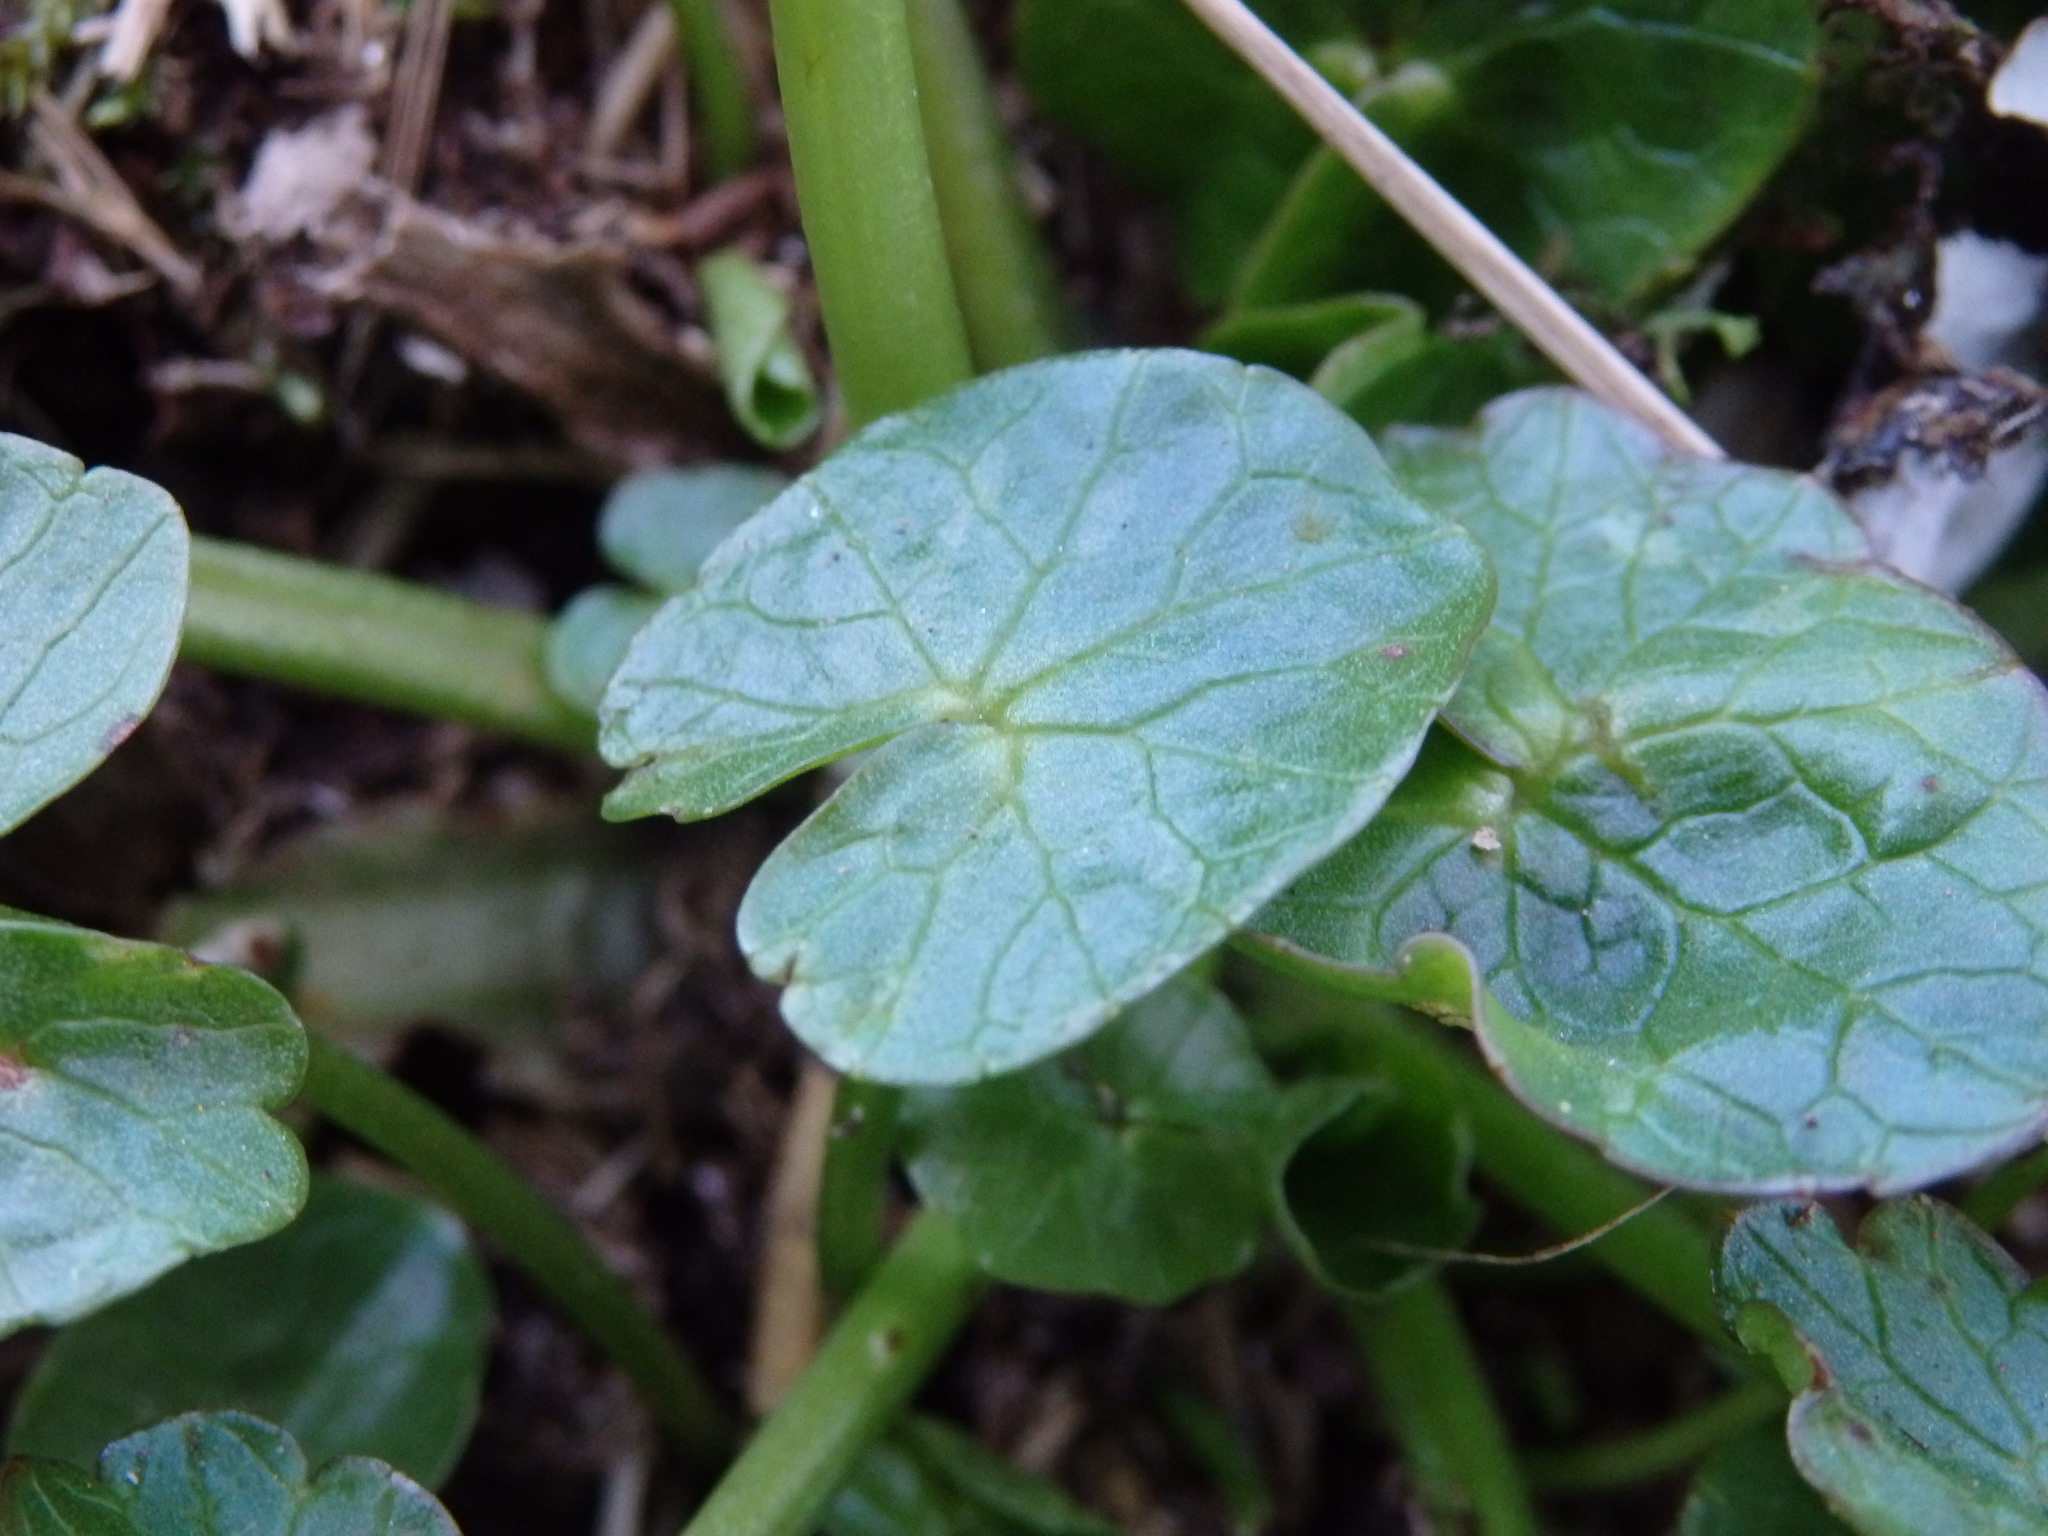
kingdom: Plantae
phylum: Tracheophyta
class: Magnoliopsida
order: Ranunculales
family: Ranunculaceae
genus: Ficaria
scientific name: Ficaria verna
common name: Lesser celandine
